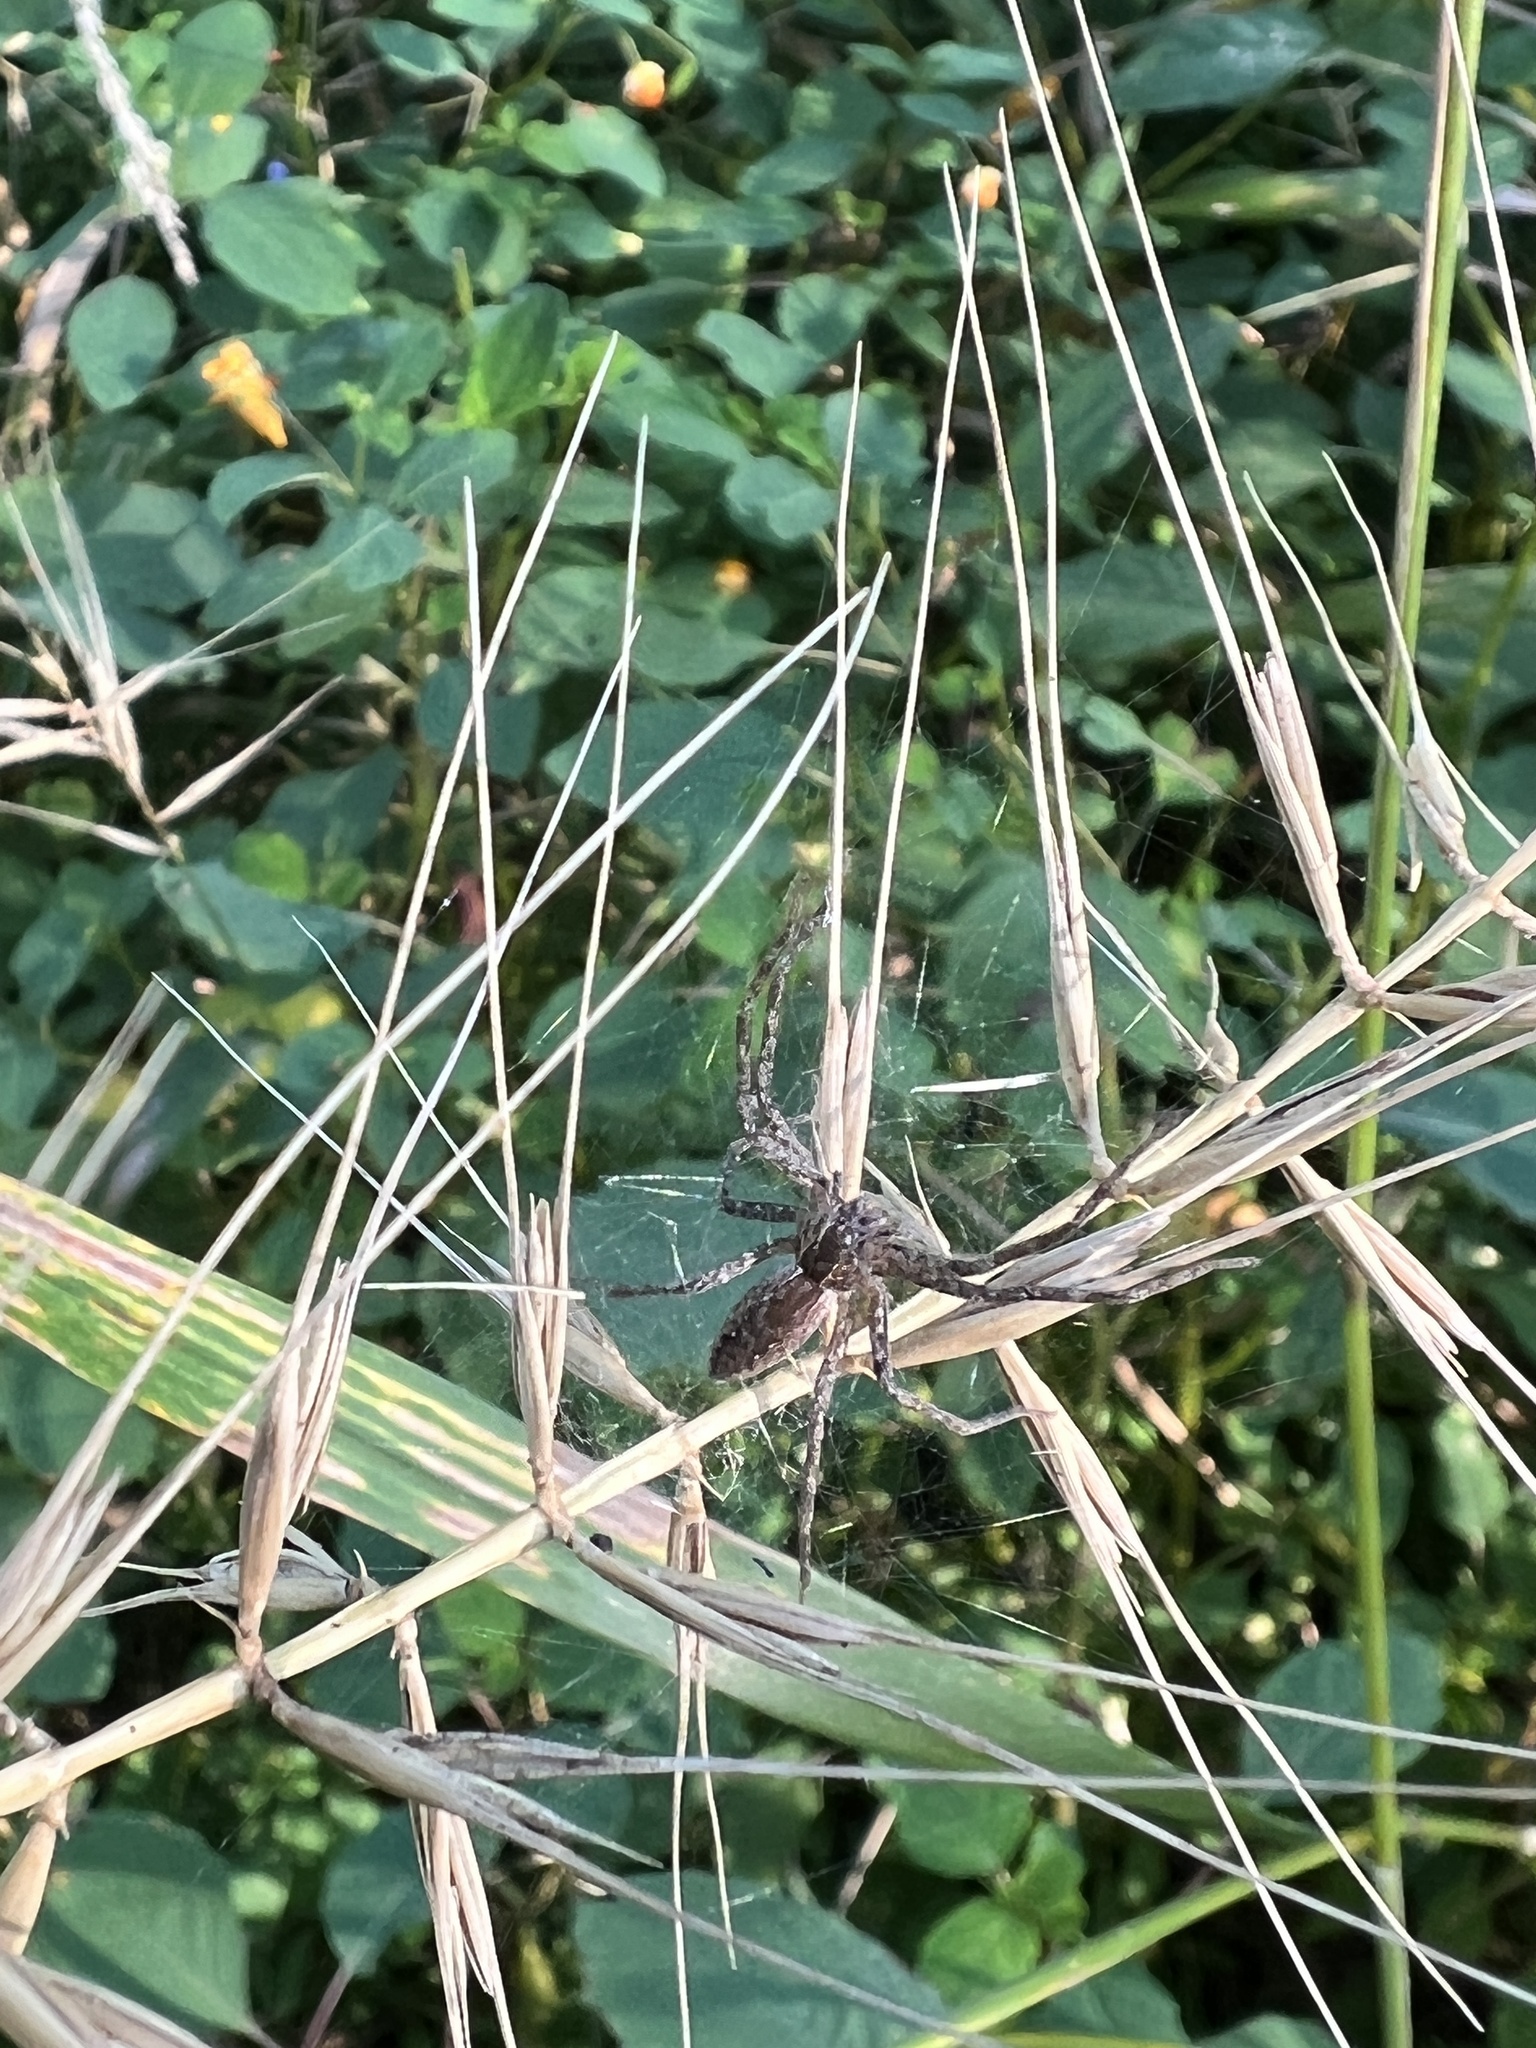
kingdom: Animalia
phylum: Arthropoda
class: Arachnida
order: Araneae
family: Pisauridae
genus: Pisaurina
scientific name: Pisaurina mira
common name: American nursery web spider
